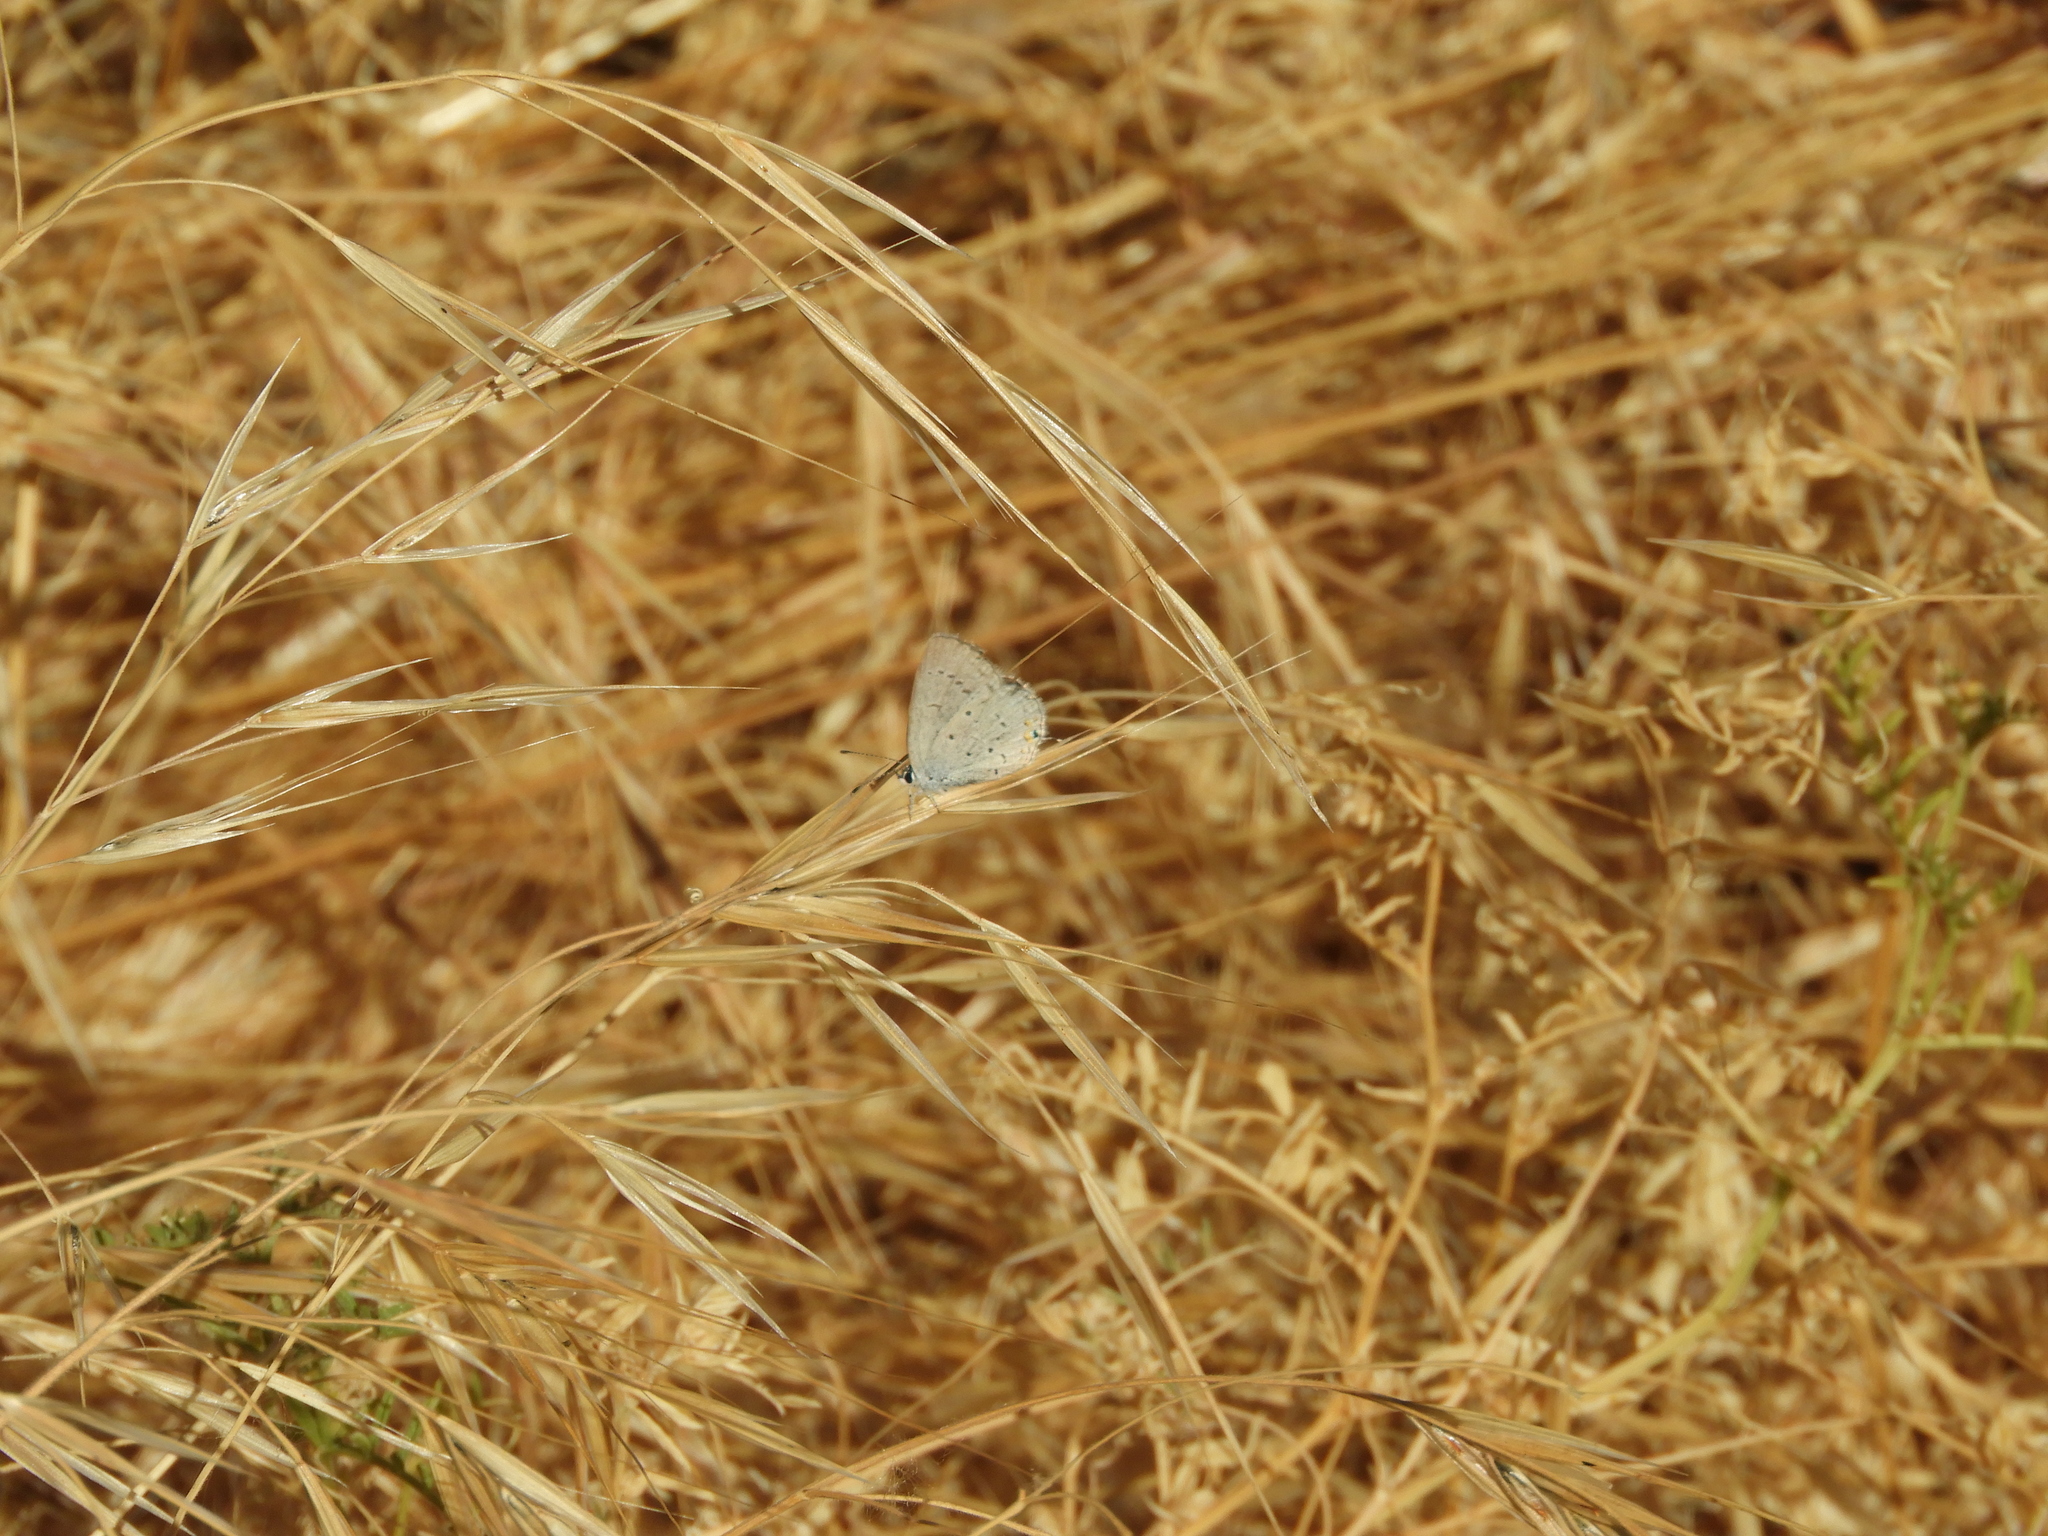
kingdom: Animalia
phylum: Arthropoda
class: Insecta
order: Lepidoptera
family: Lycaenidae
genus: Elkalyce
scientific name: Elkalyce amyntula
